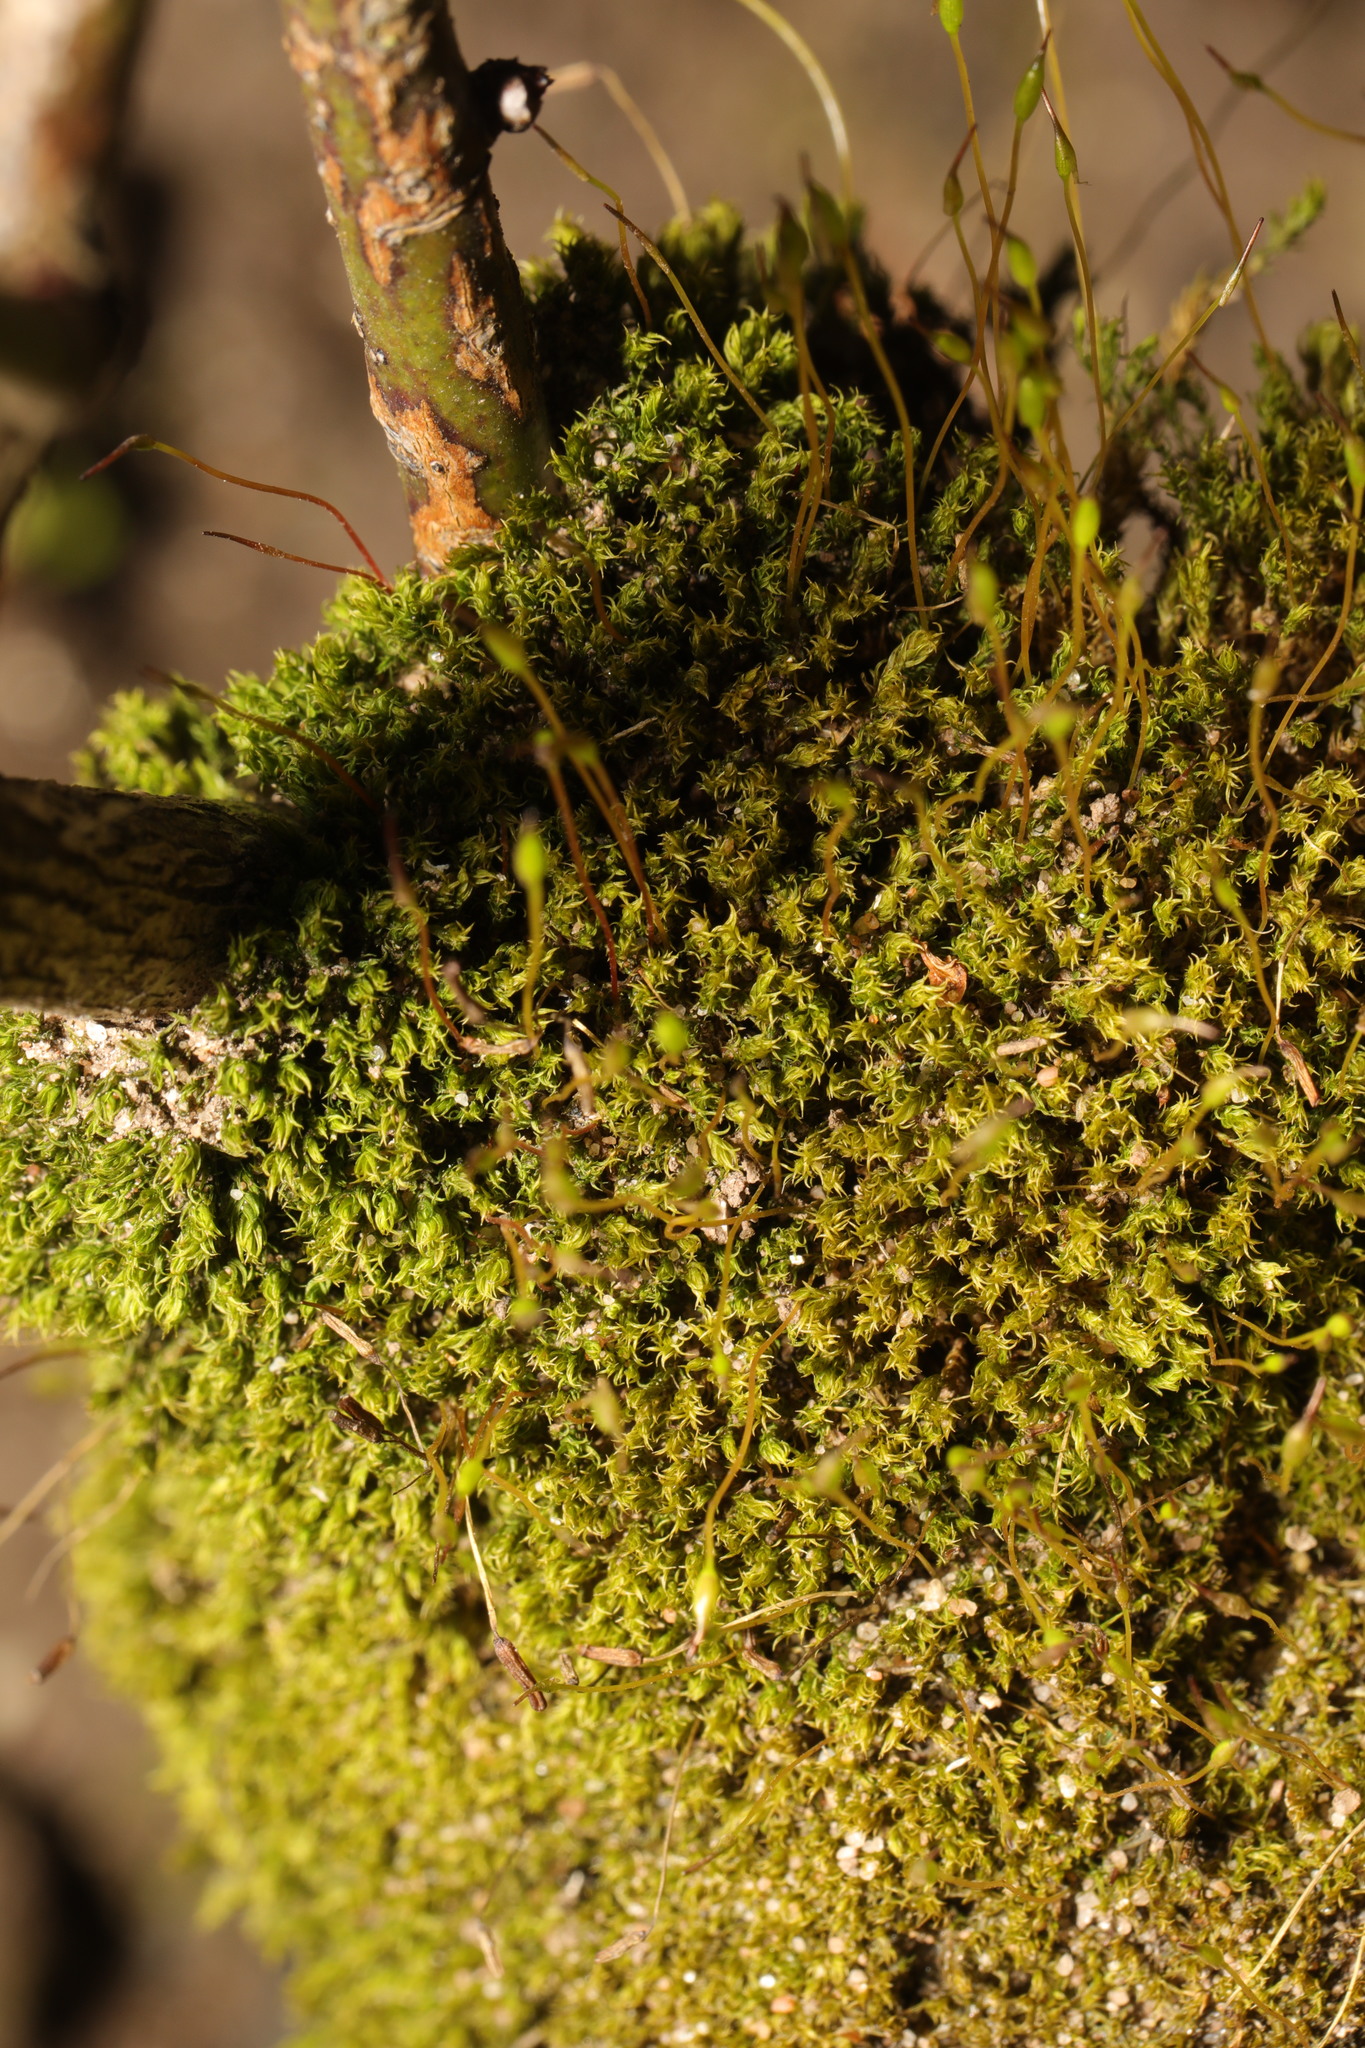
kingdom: Plantae
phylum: Bryophyta
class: Bryopsida
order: Dicranales
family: Ditrichaceae
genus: Ceratodon
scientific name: Ceratodon purpureus
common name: Redshank
